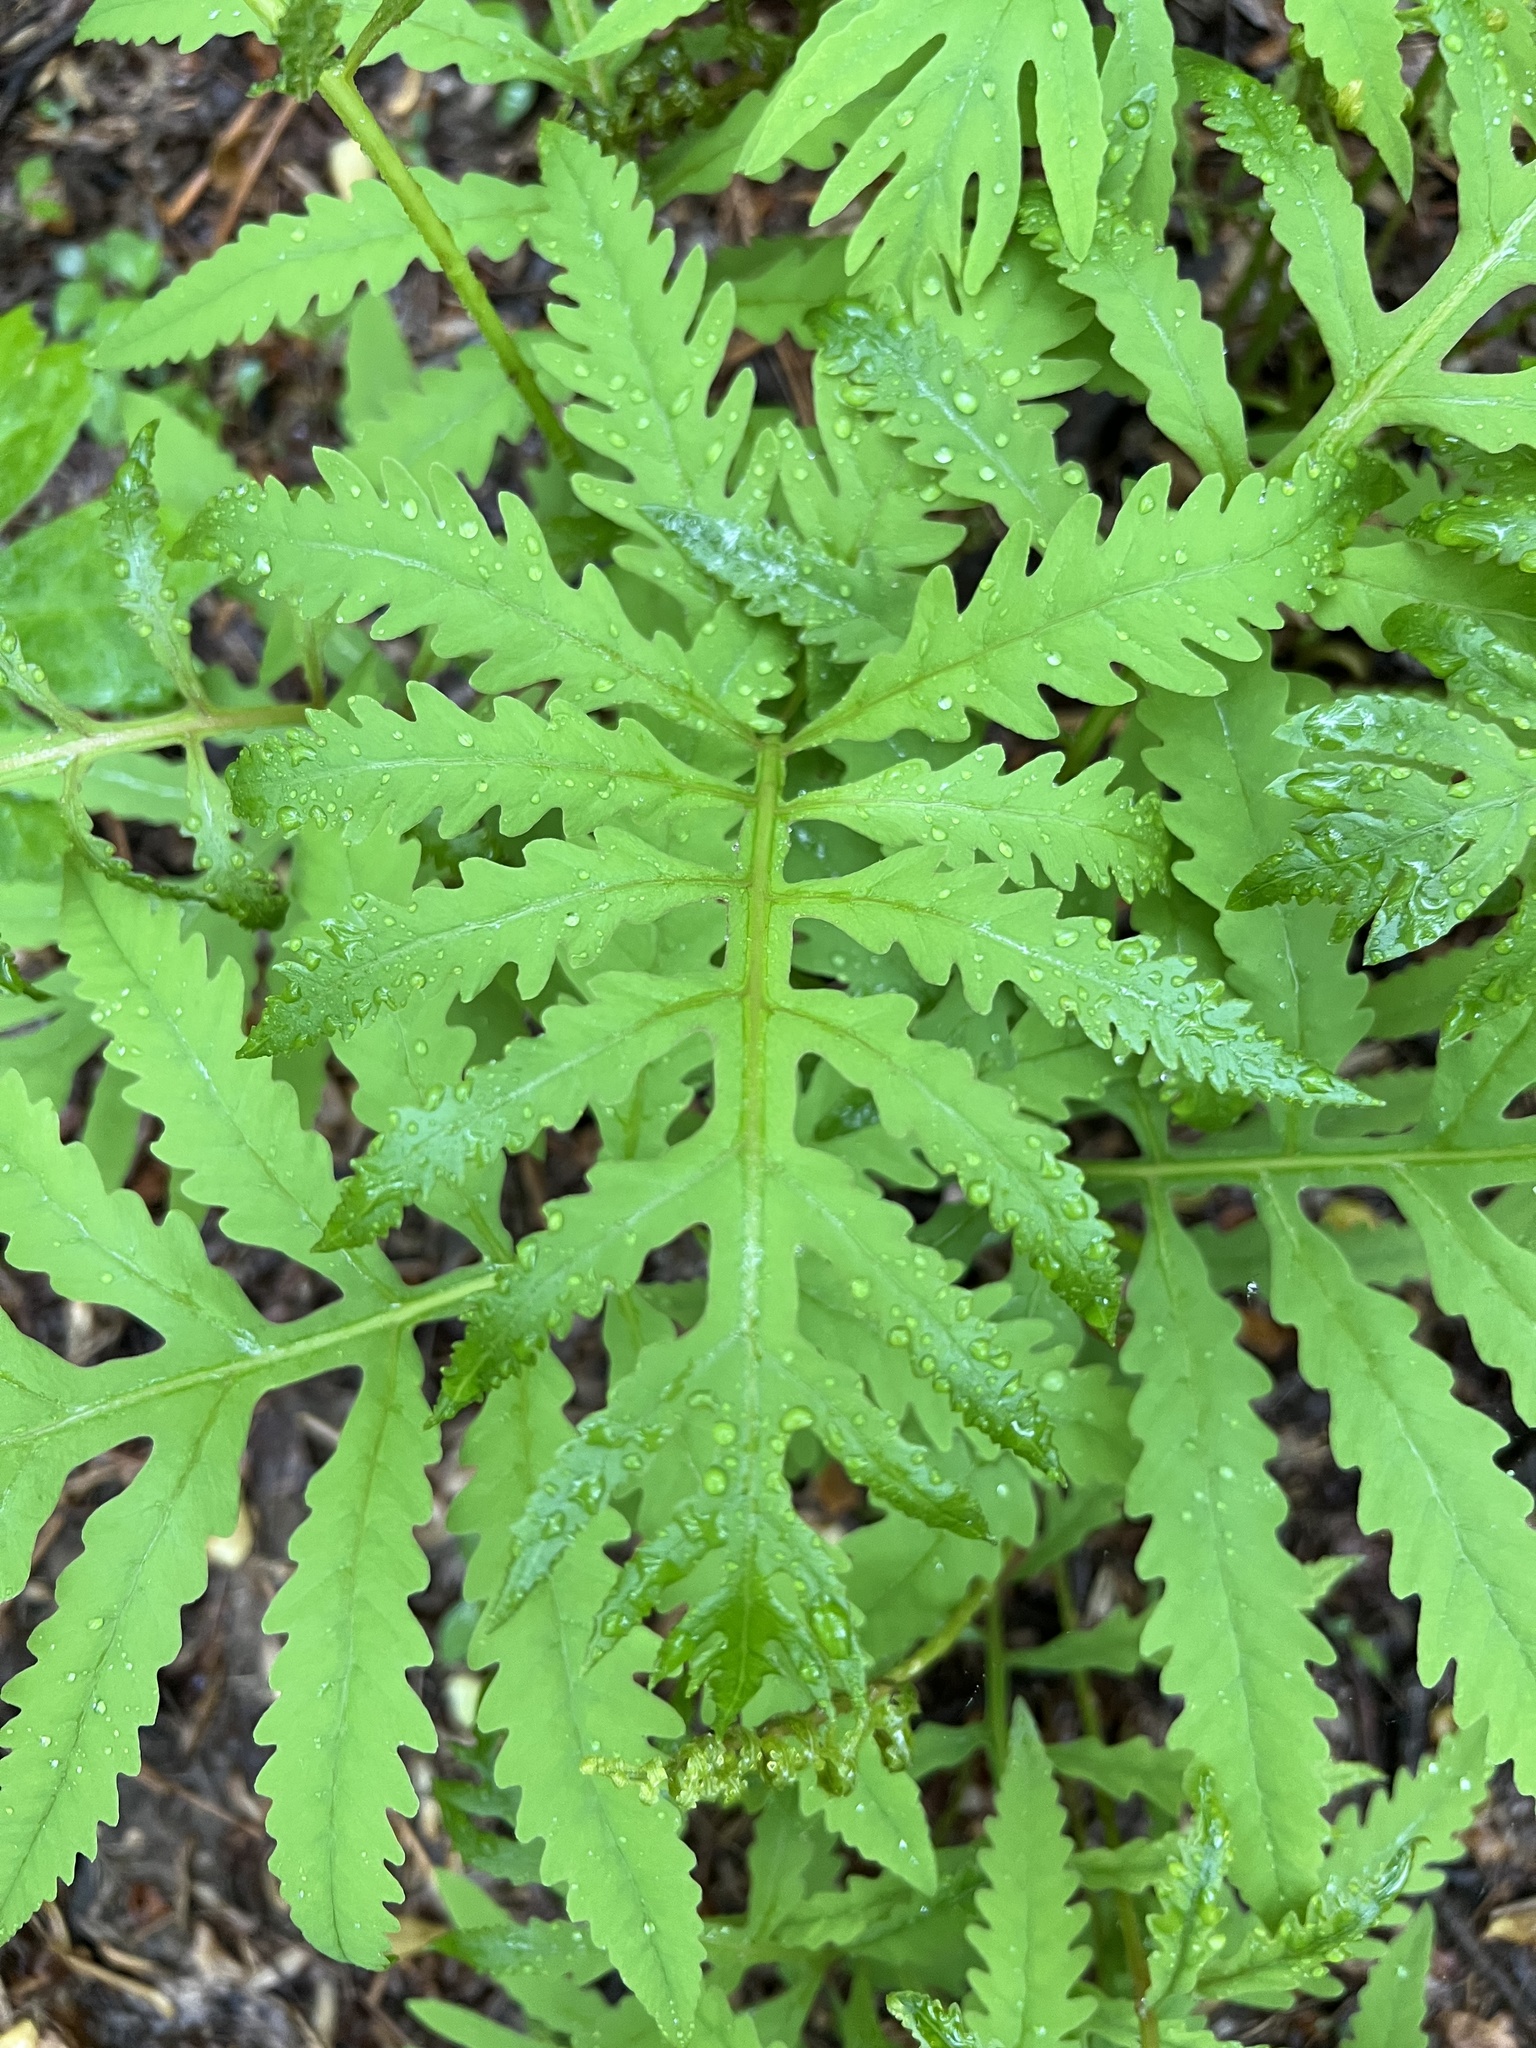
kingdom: Plantae
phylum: Tracheophyta
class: Polypodiopsida
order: Polypodiales
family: Onocleaceae
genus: Onoclea
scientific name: Onoclea sensibilis
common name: Sensitive fern
